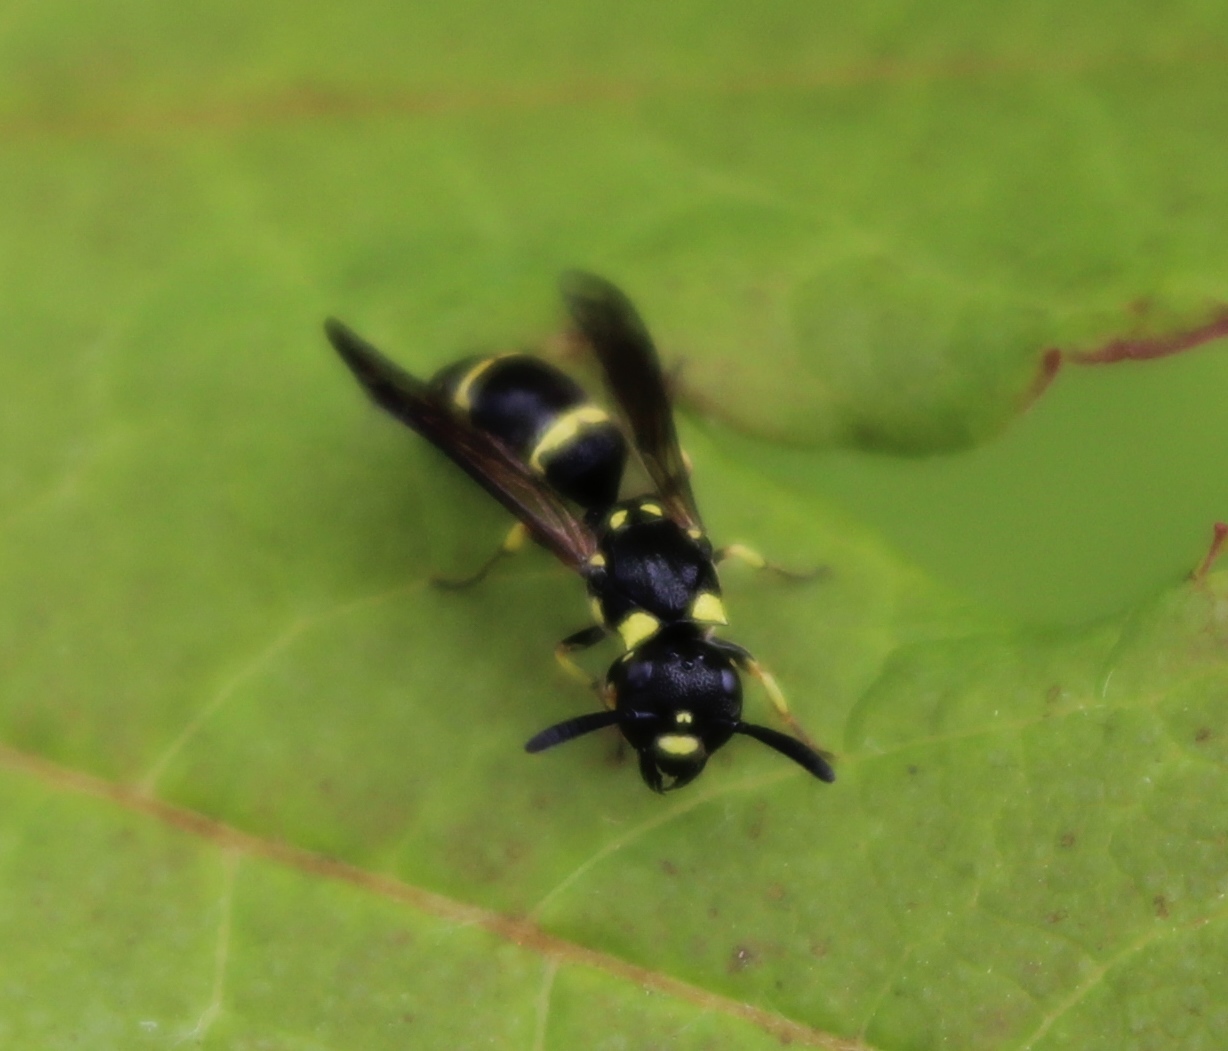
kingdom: Animalia
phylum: Arthropoda
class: Insecta
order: Hymenoptera
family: Eumenidae
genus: Symmorphus
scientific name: Symmorphus projectus
